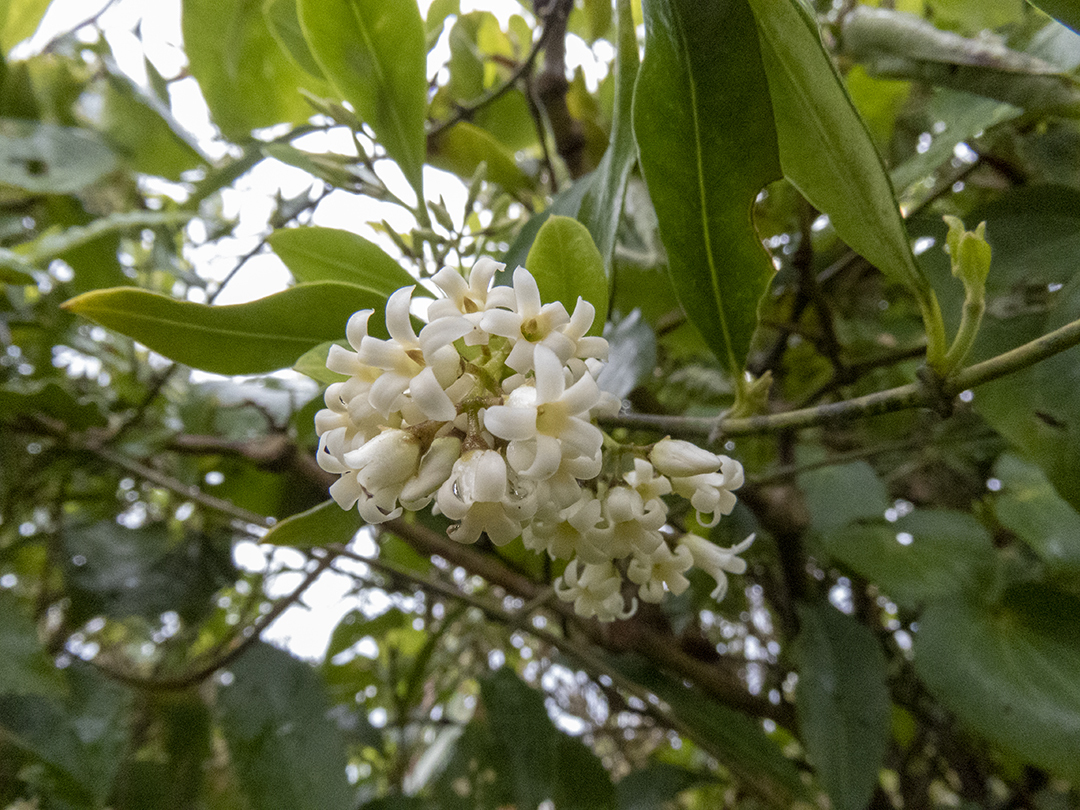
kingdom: Plantae
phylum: Tracheophyta
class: Magnoliopsida
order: Gentianales
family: Apocynaceae
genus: Parsonsia
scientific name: Parsonsia heterophylla
